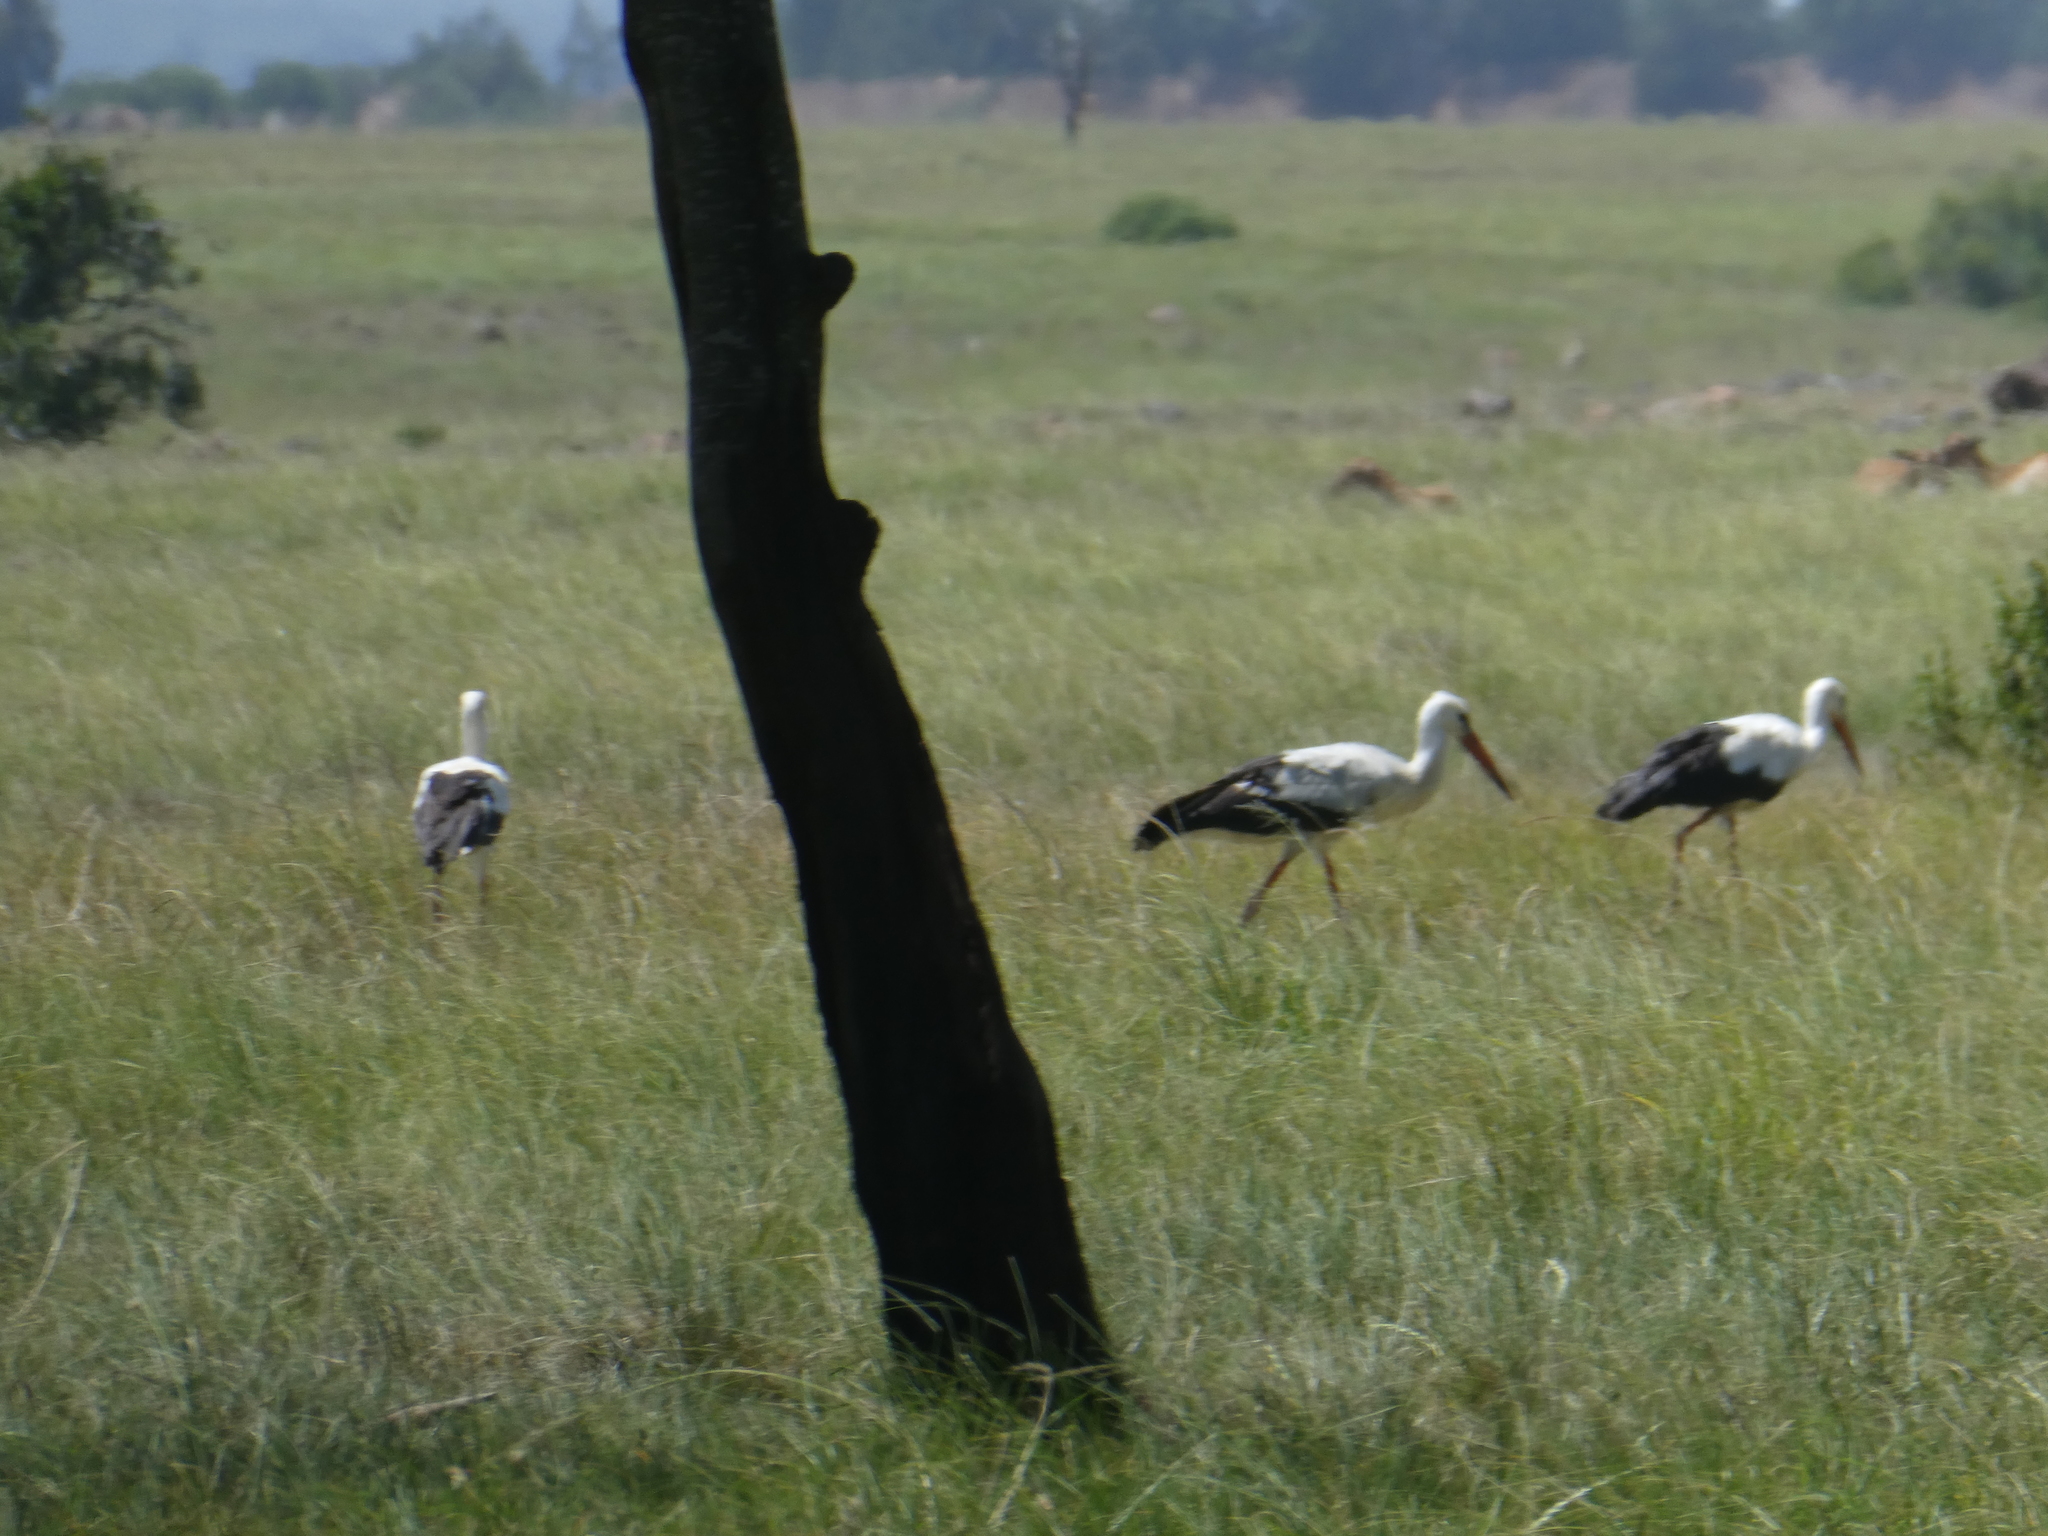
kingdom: Animalia
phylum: Chordata
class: Aves
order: Ciconiiformes
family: Ciconiidae
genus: Ciconia
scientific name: Ciconia ciconia
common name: White stork
